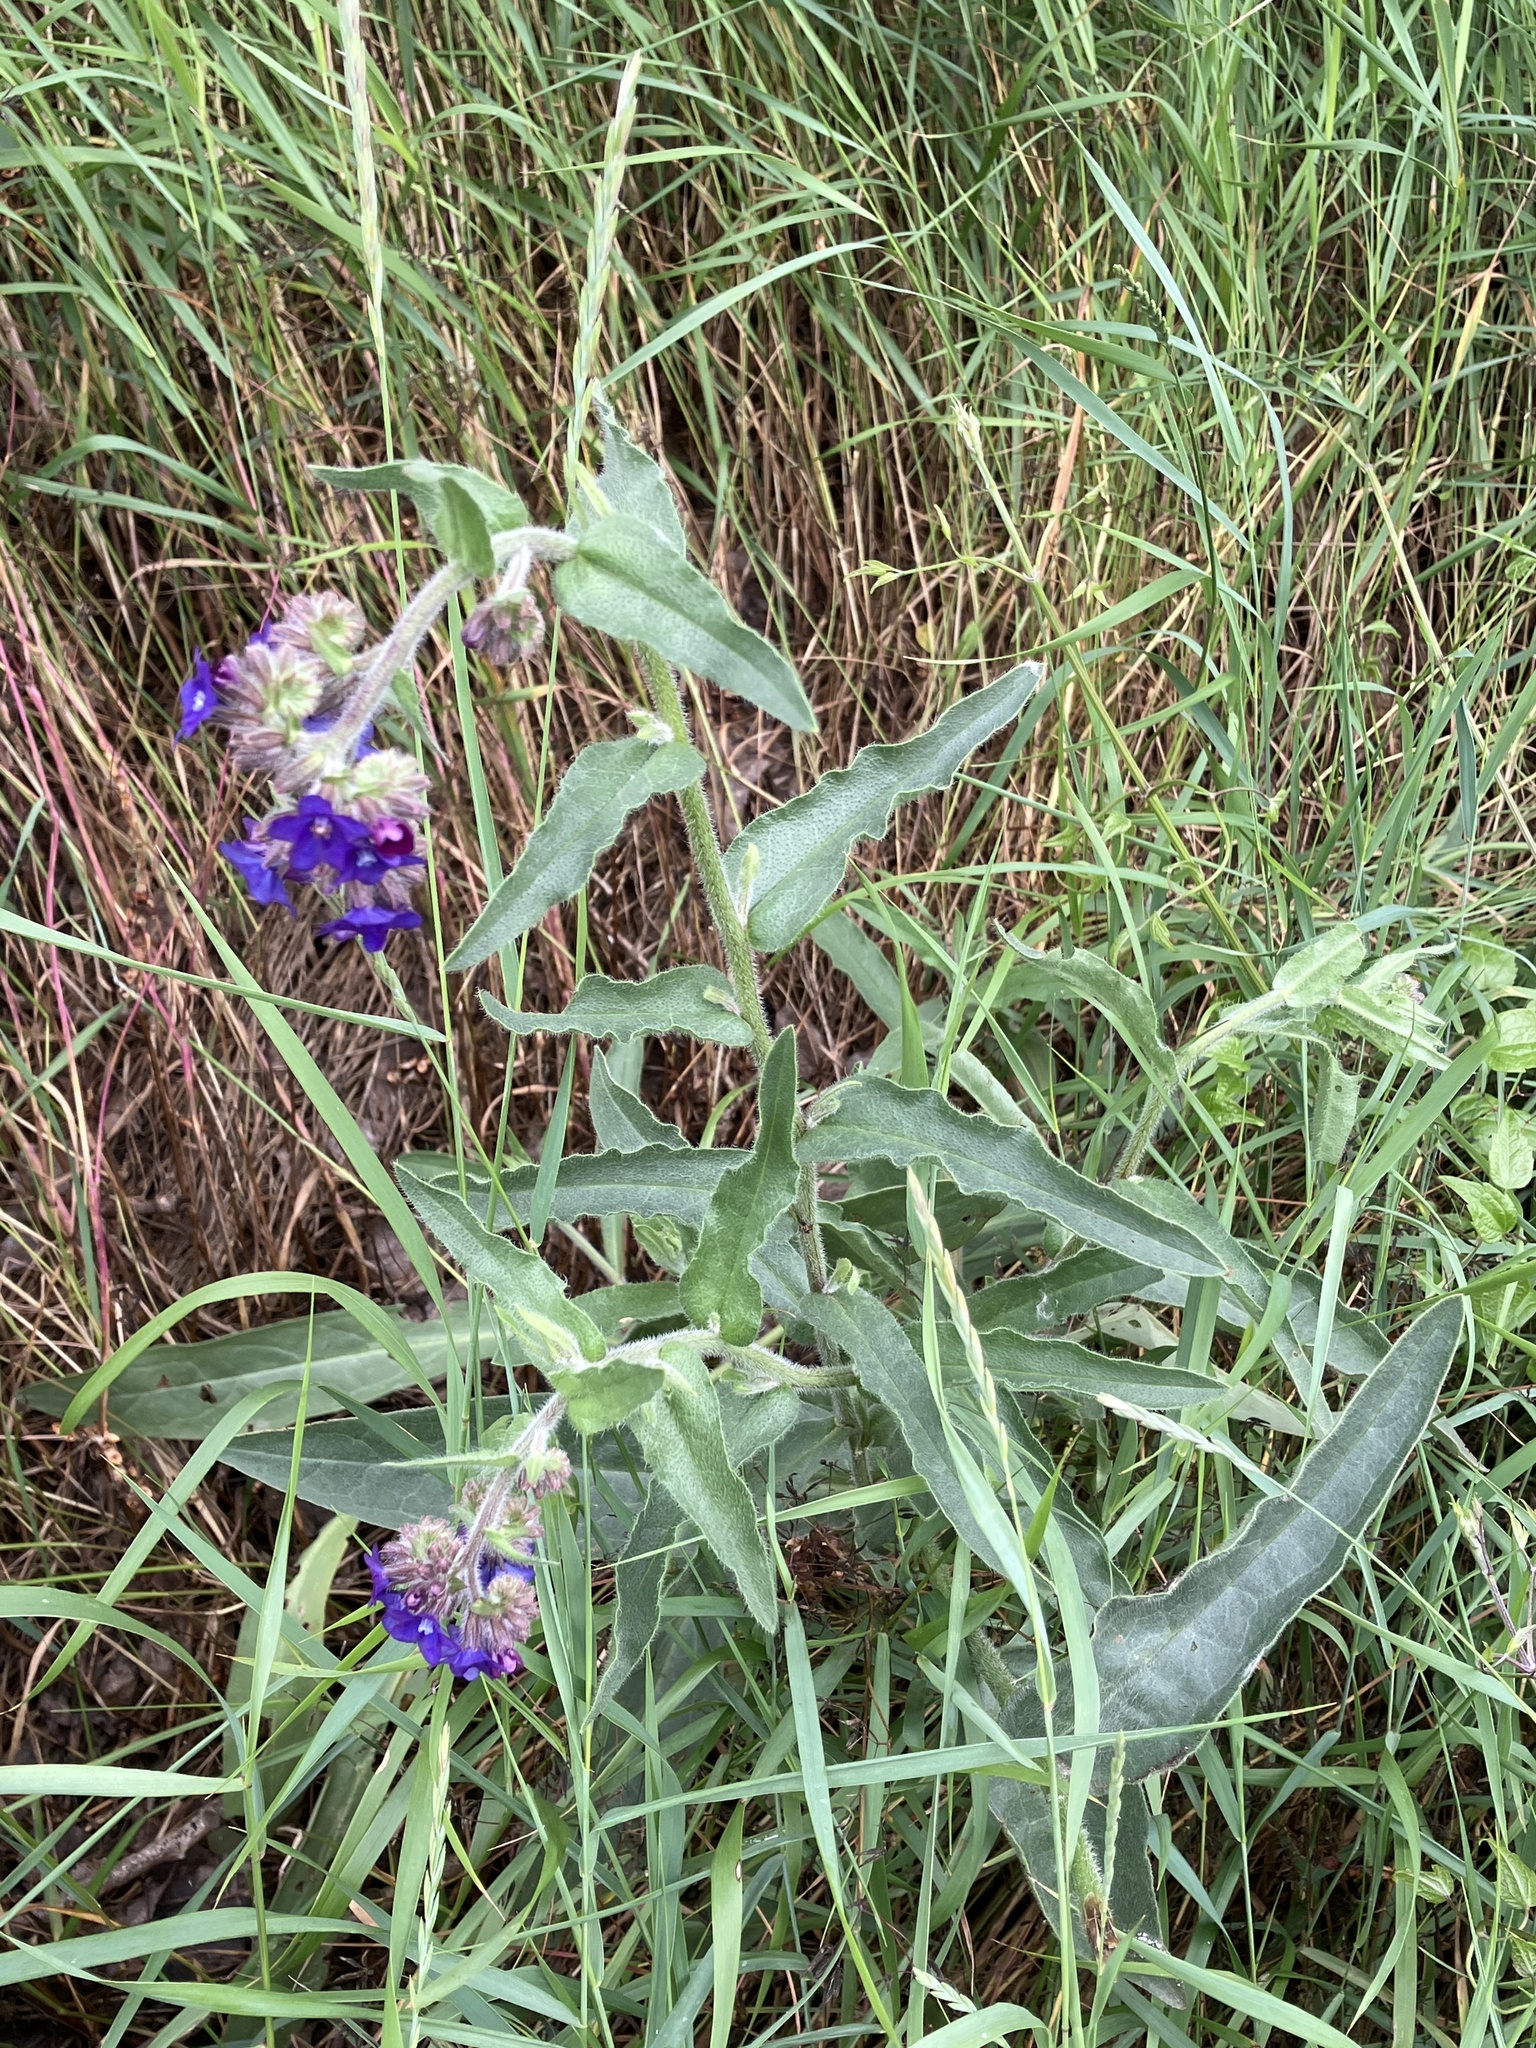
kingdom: Plantae
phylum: Tracheophyta
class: Magnoliopsida
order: Boraginales
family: Boraginaceae
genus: Anchusa
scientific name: Anchusa officinalis
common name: Alkanet
